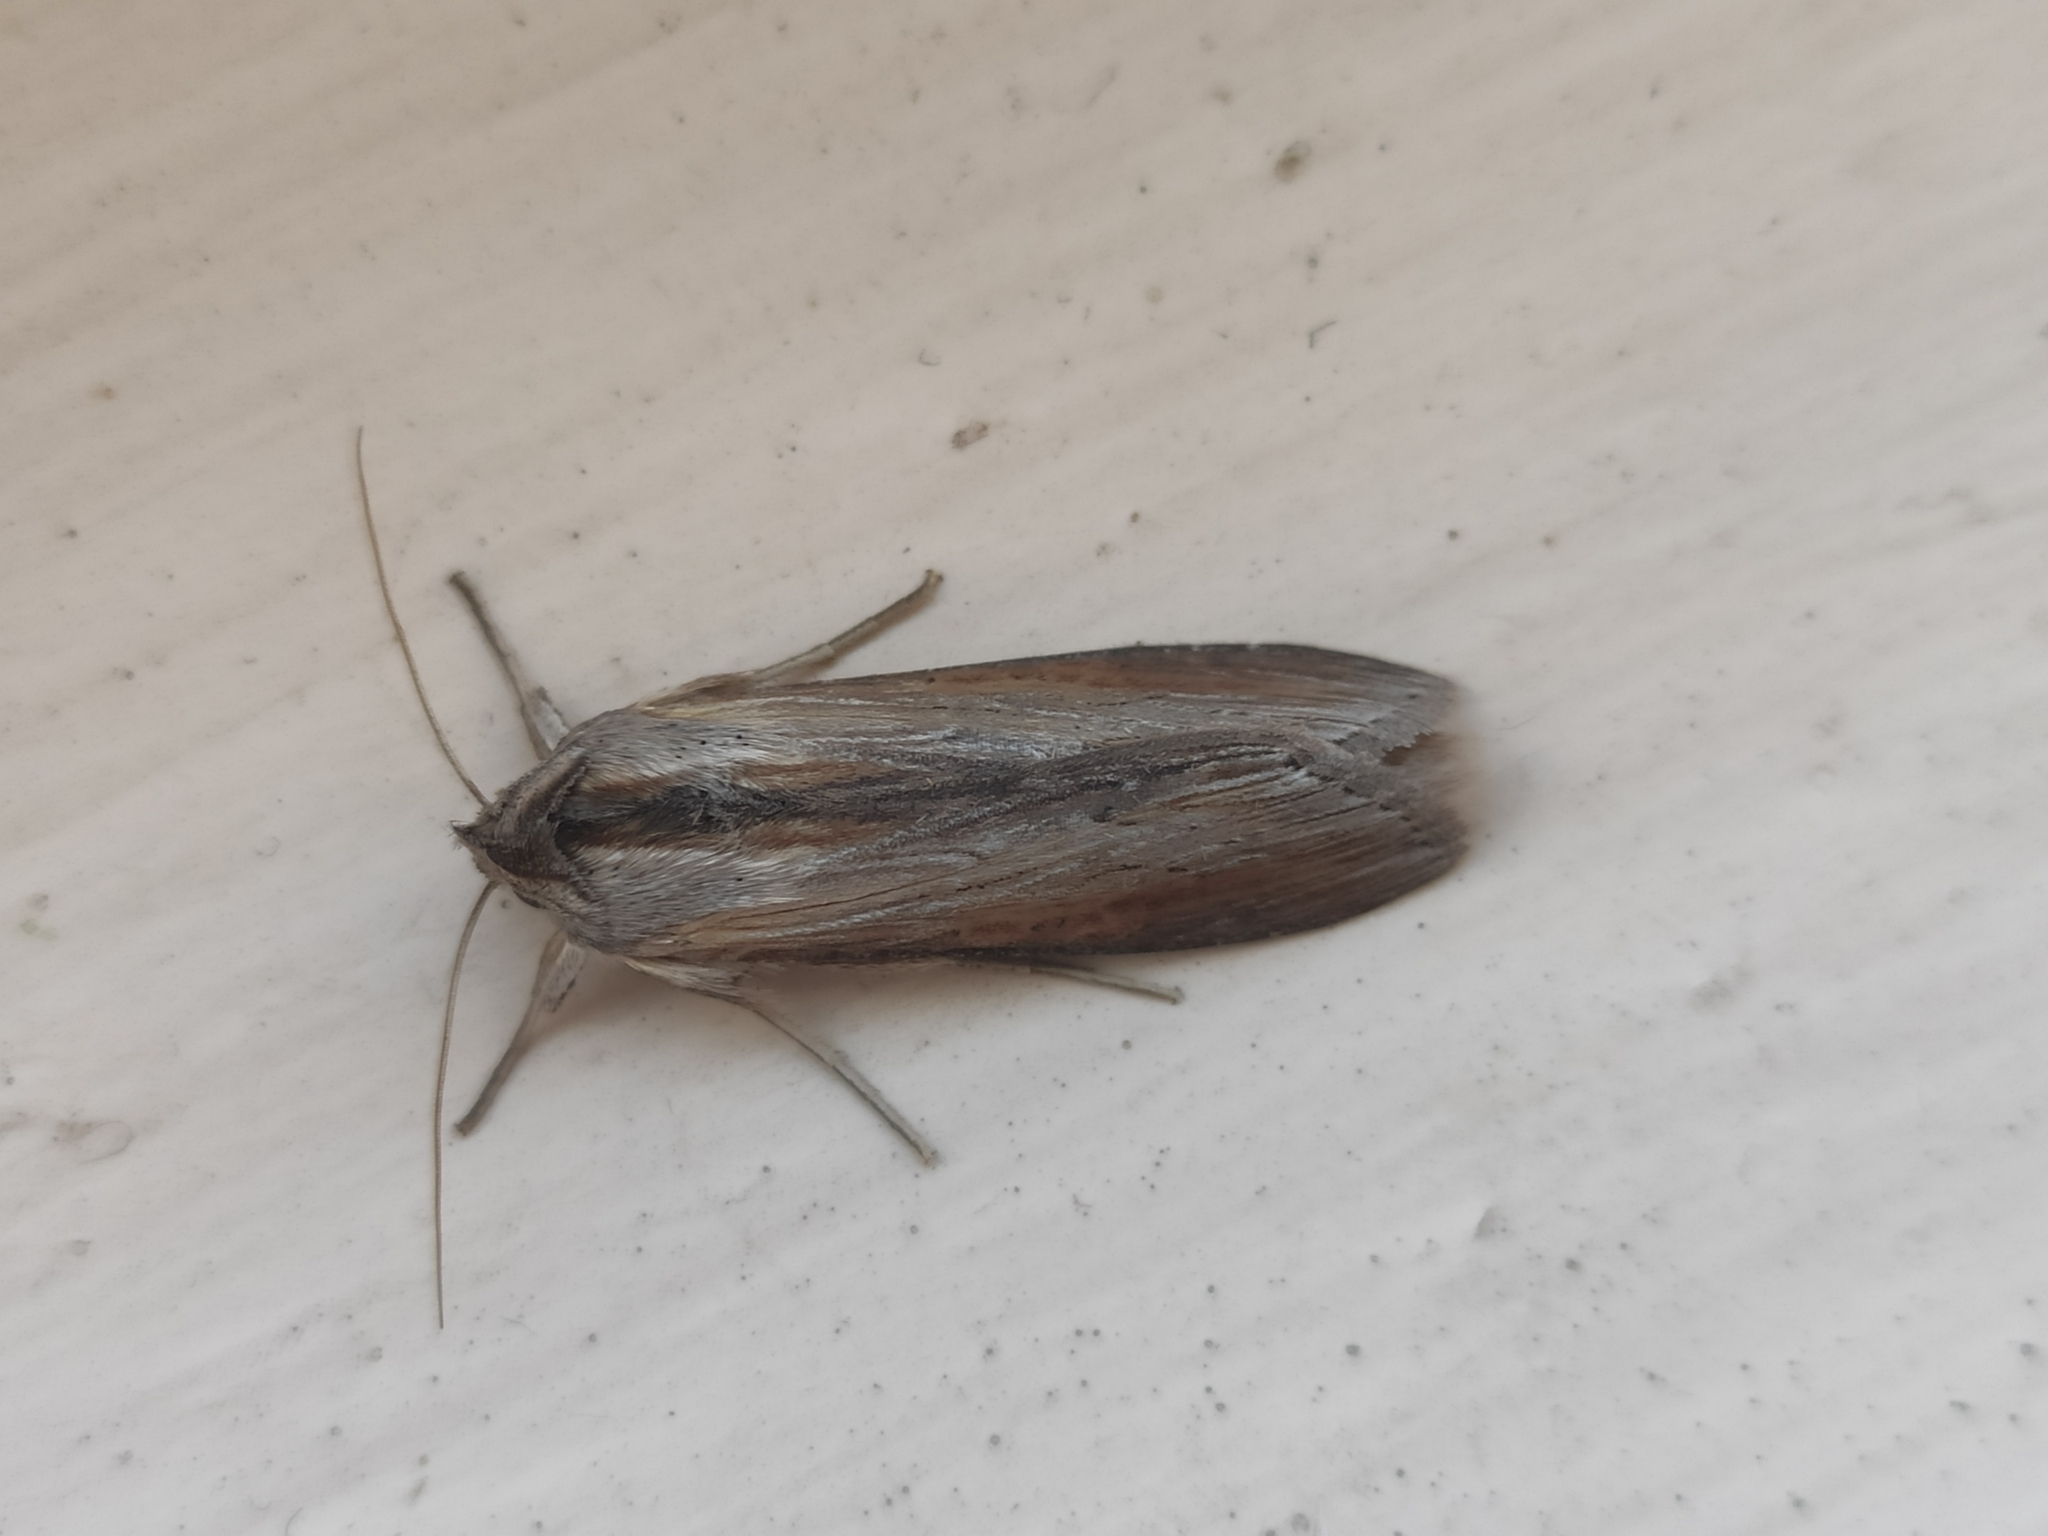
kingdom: Animalia
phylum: Arthropoda
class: Insecta
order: Lepidoptera
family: Noctuidae
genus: Cucullia
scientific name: Cucullia virgaureae
